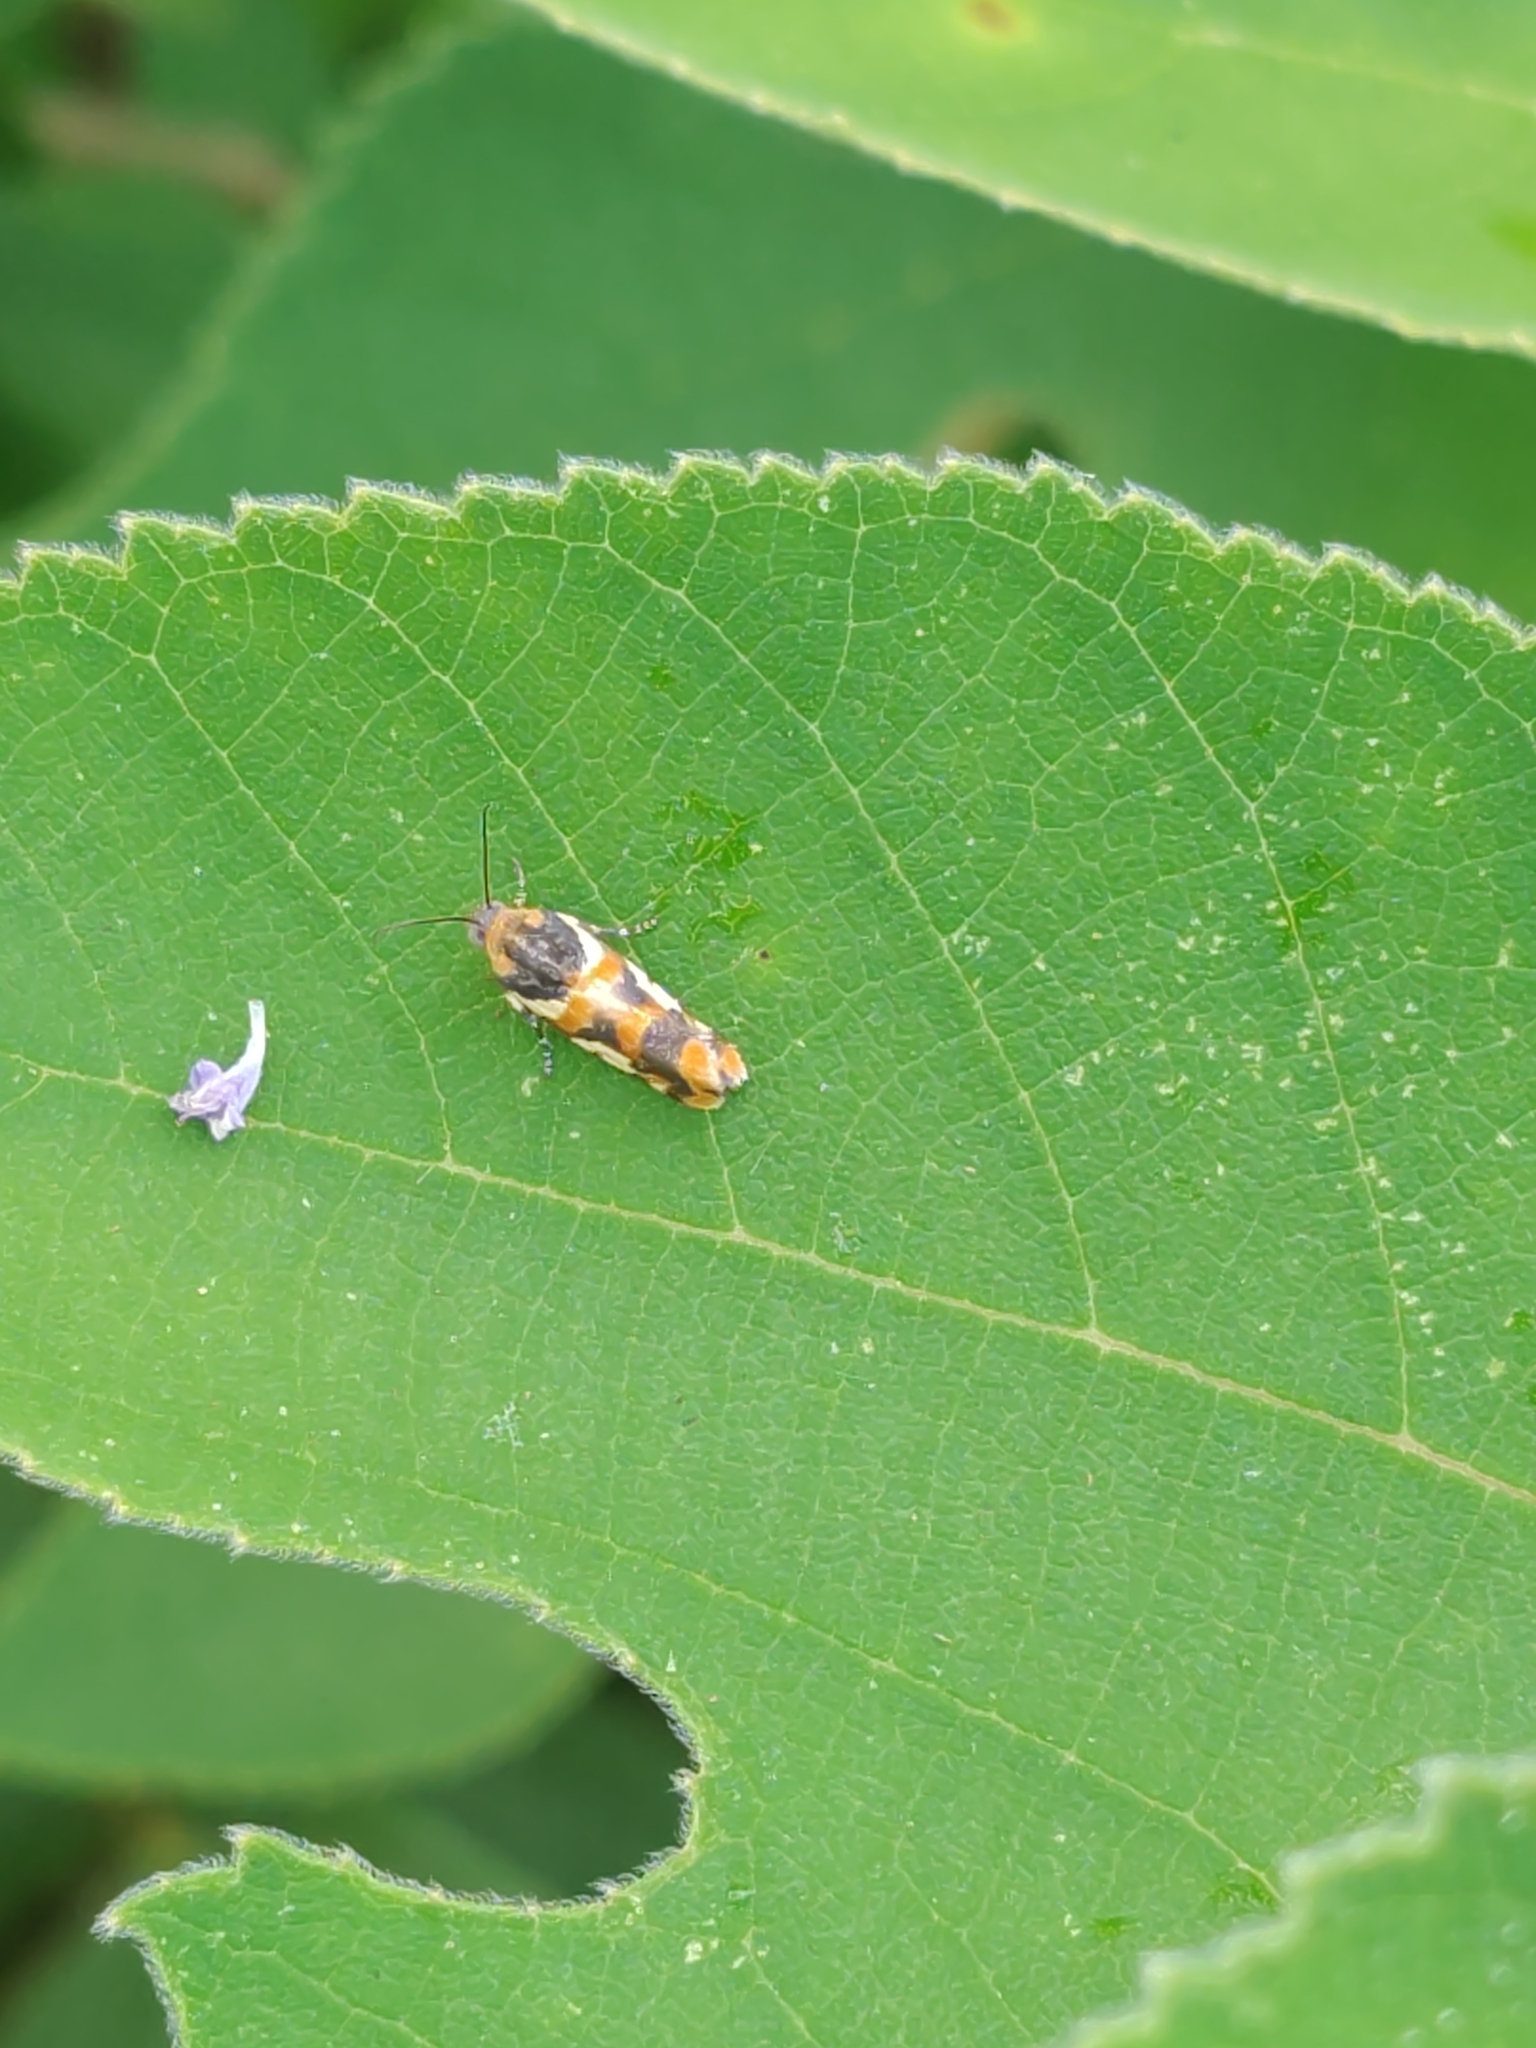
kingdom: Animalia
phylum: Arthropoda
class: Insecta
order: Lepidoptera
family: Noctuidae
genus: Acontia
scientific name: Acontia dama
